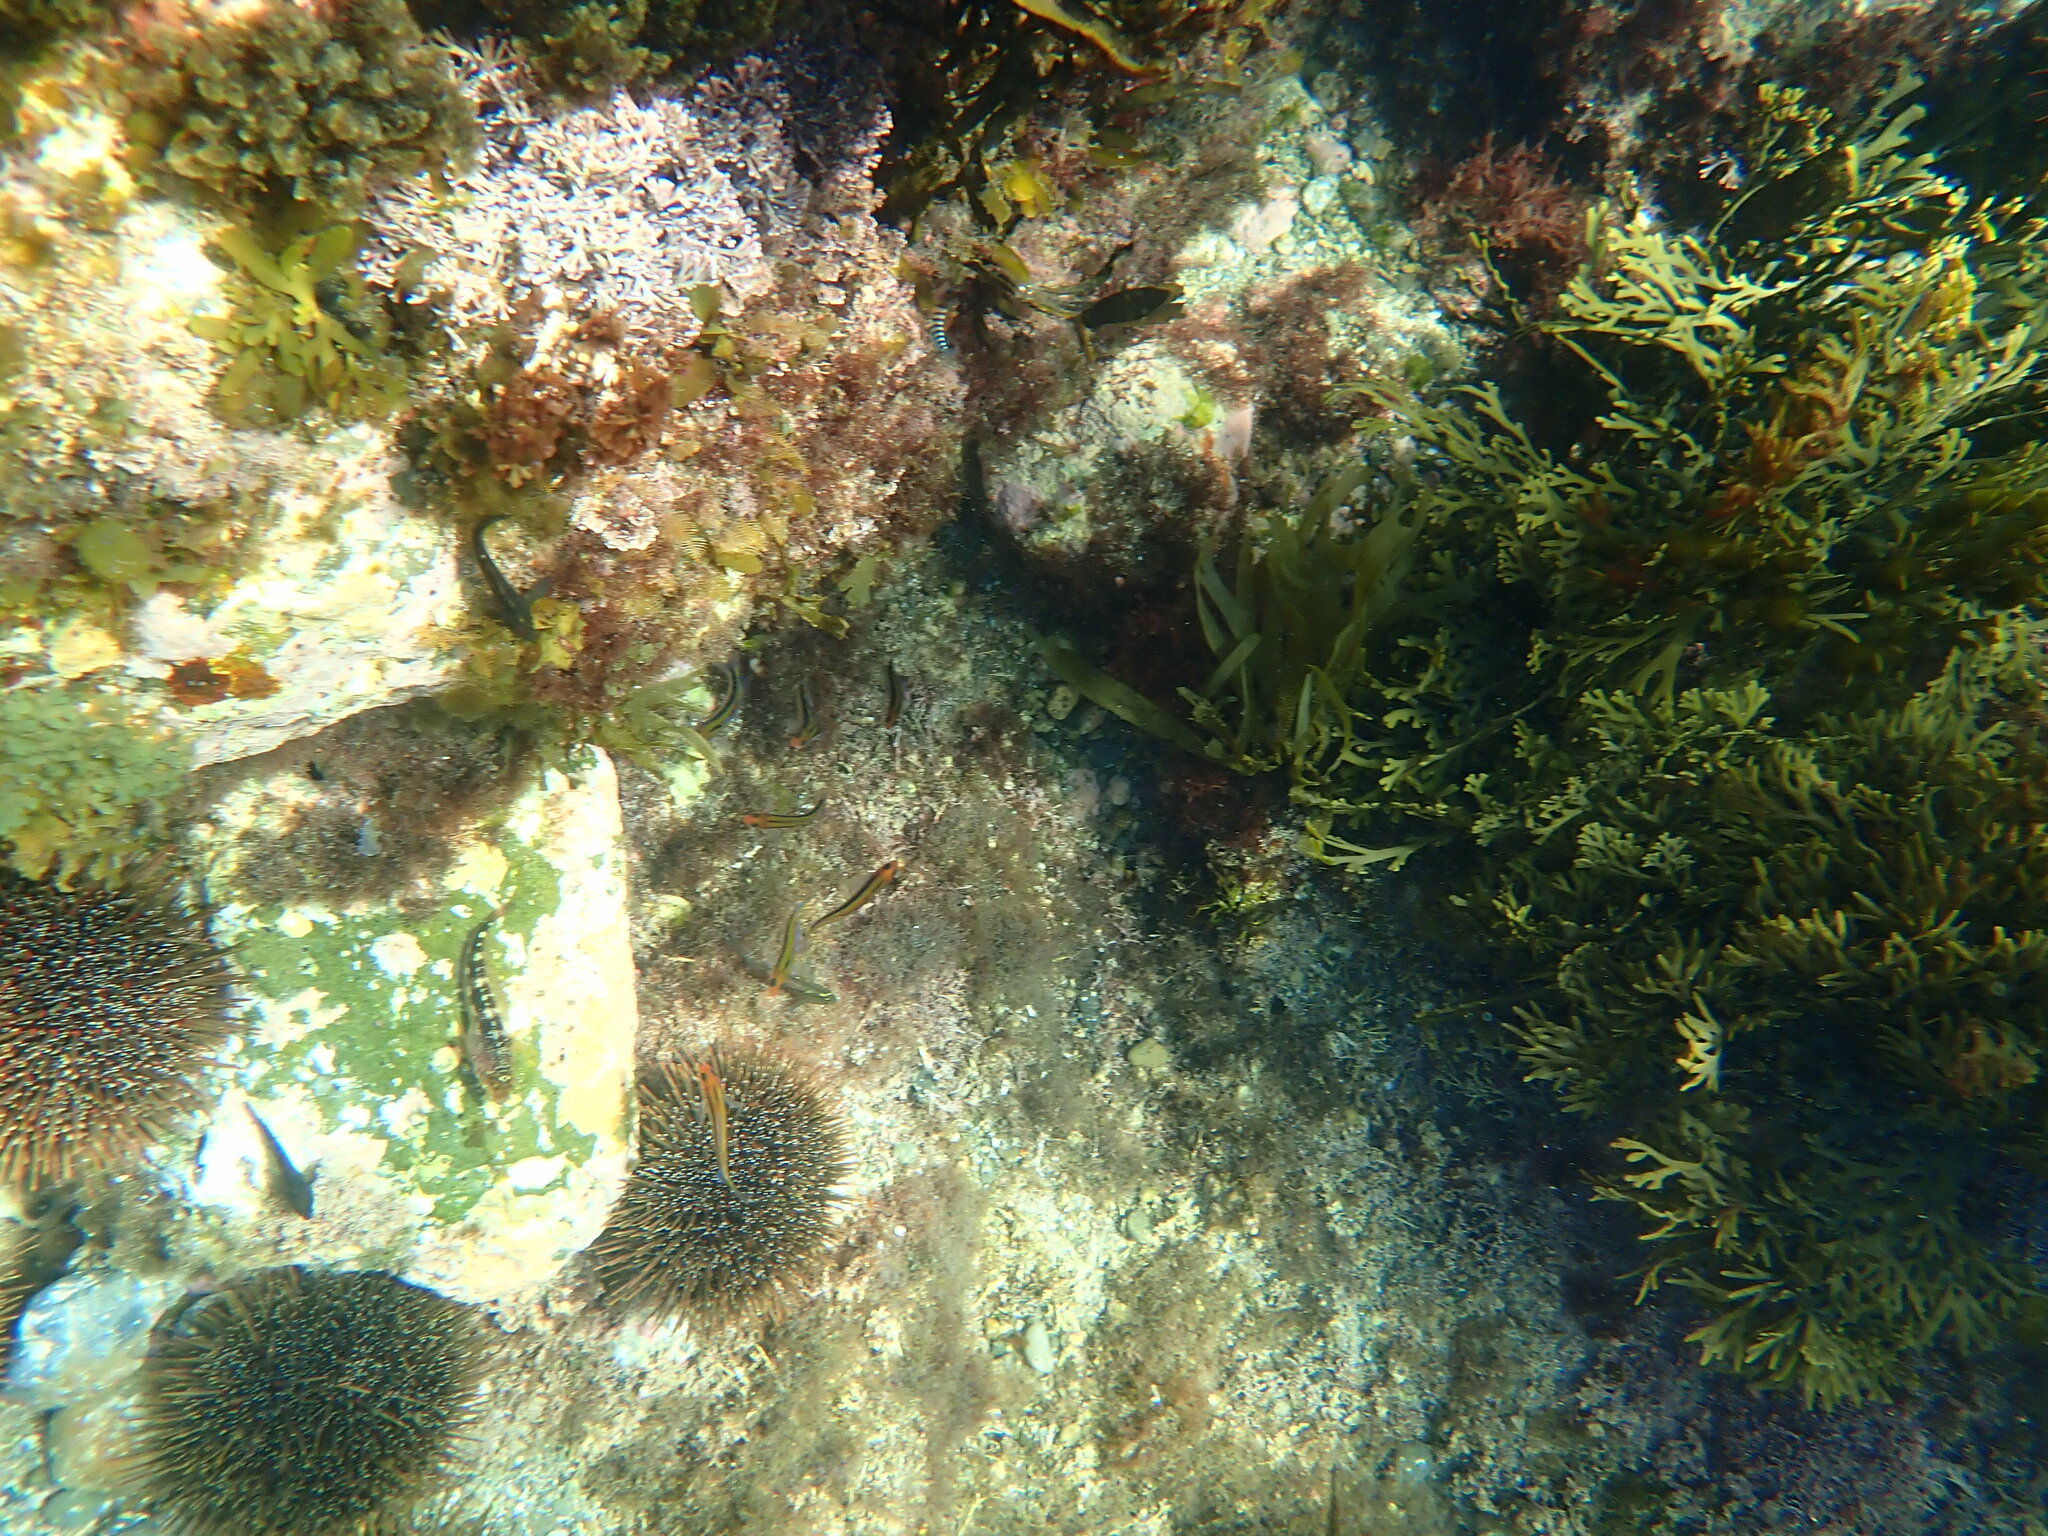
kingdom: Animalia
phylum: Chordata
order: Perciformes
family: Tripterygiidae
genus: Forsterygion
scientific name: Forsterygion maryannae
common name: Oblique-swimming triplefin
